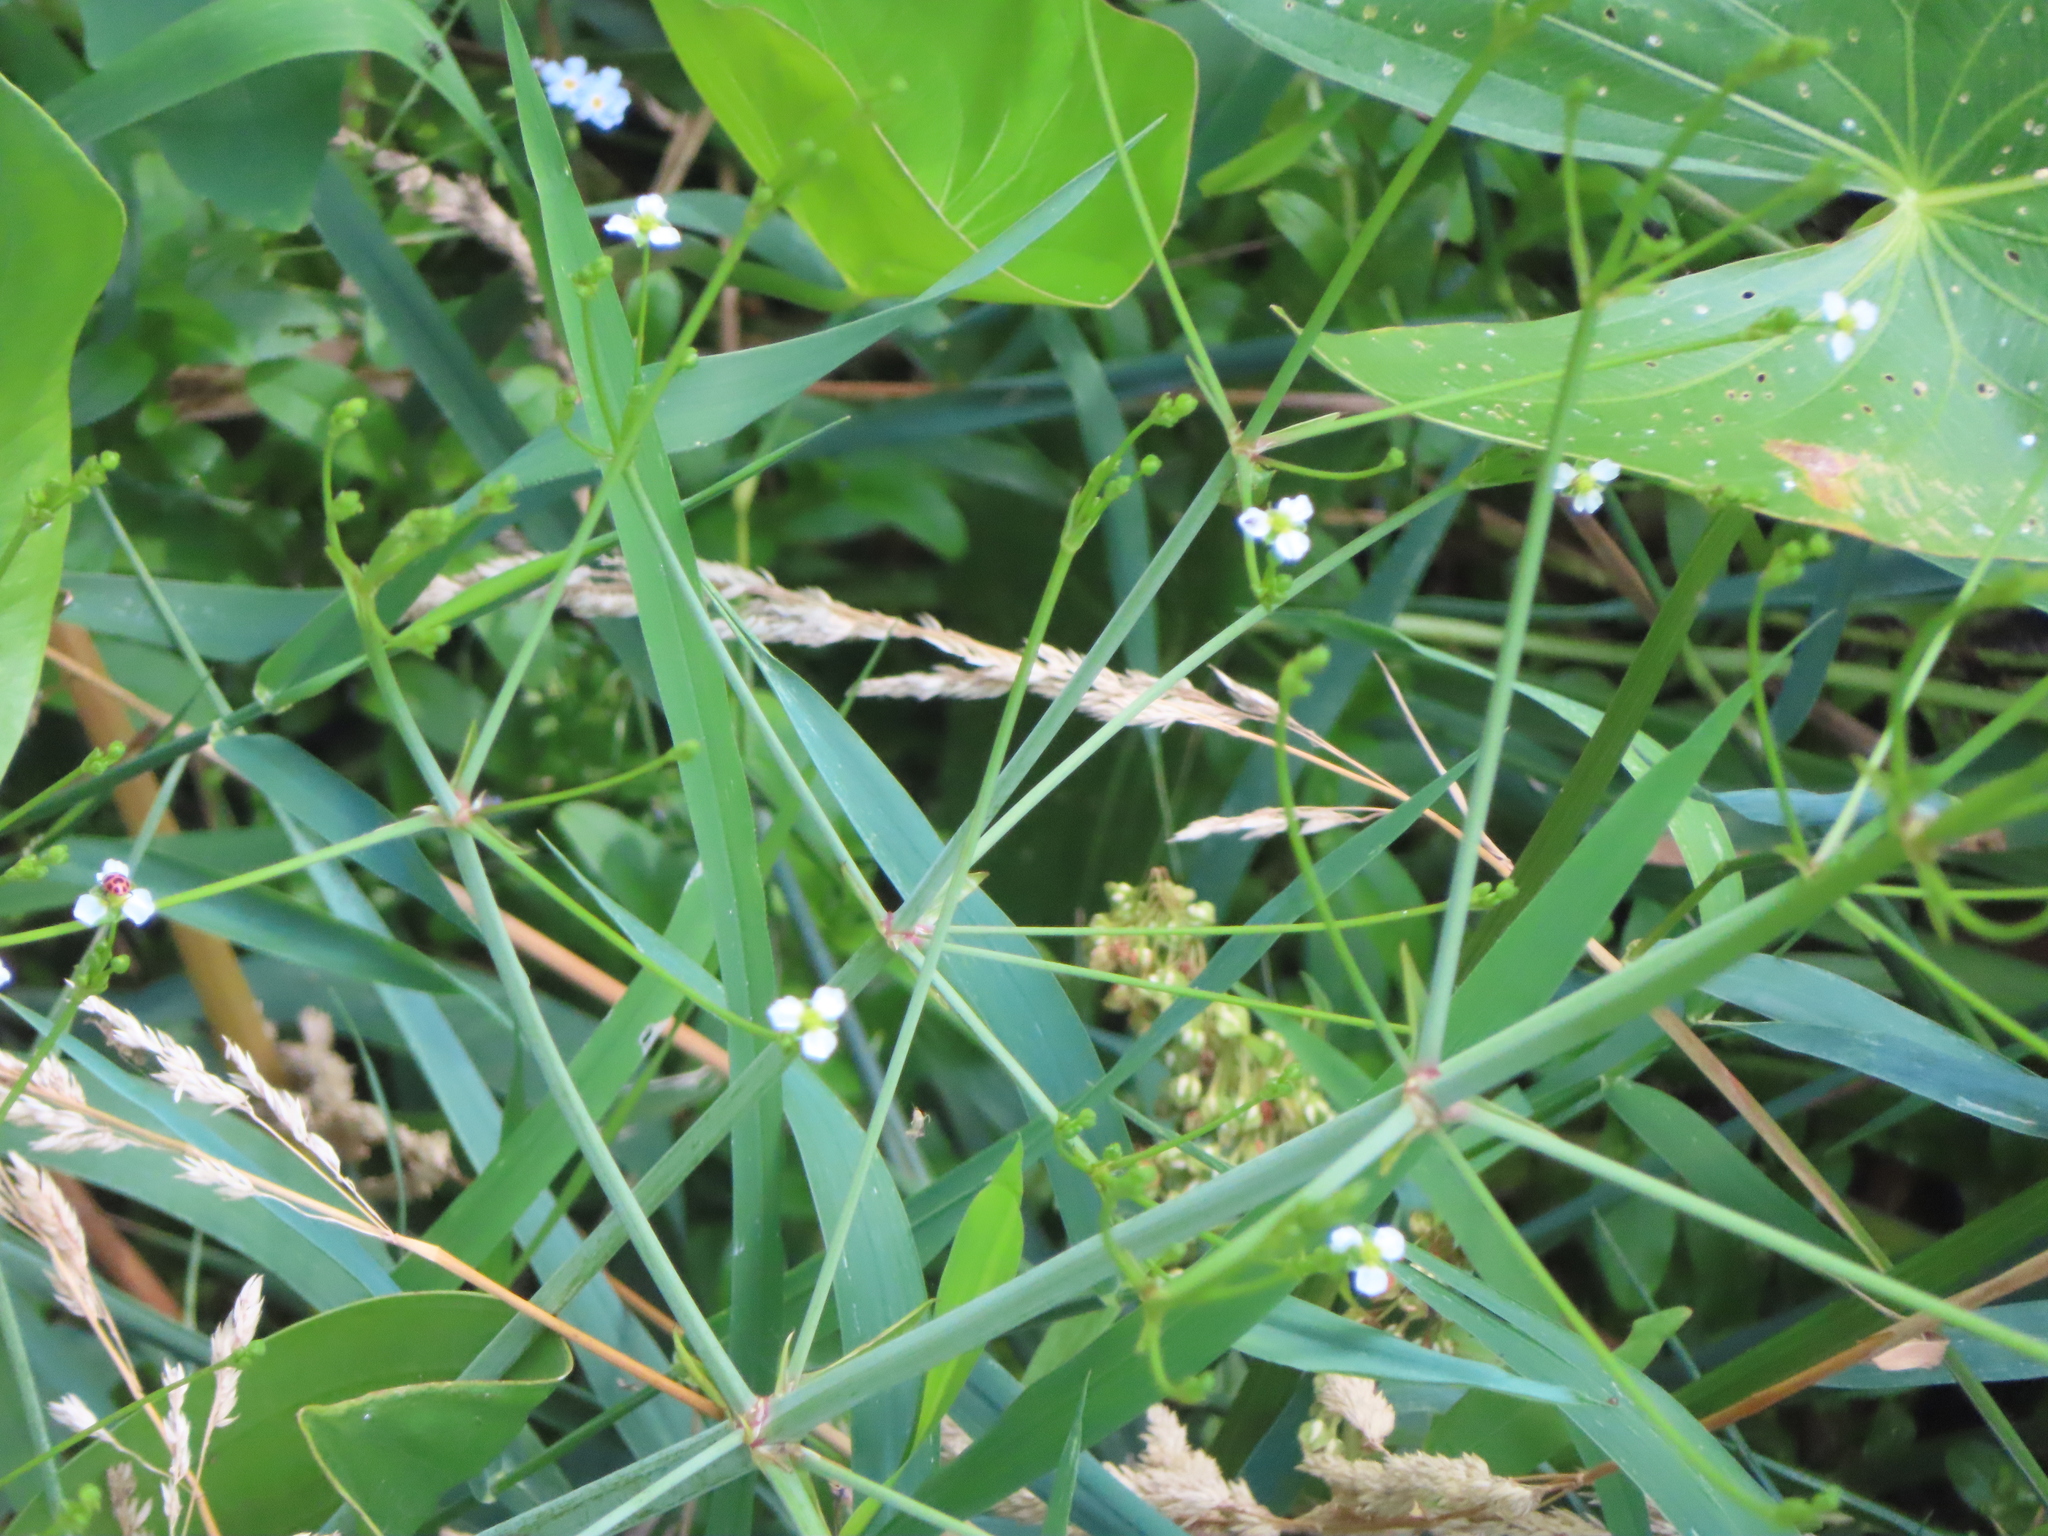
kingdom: Plantae
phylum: Tracheophyta
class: Liliopsida
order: Alismatales
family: Alismataceae
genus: Alisma
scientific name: Alisma triviale
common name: Northern water-plantain
